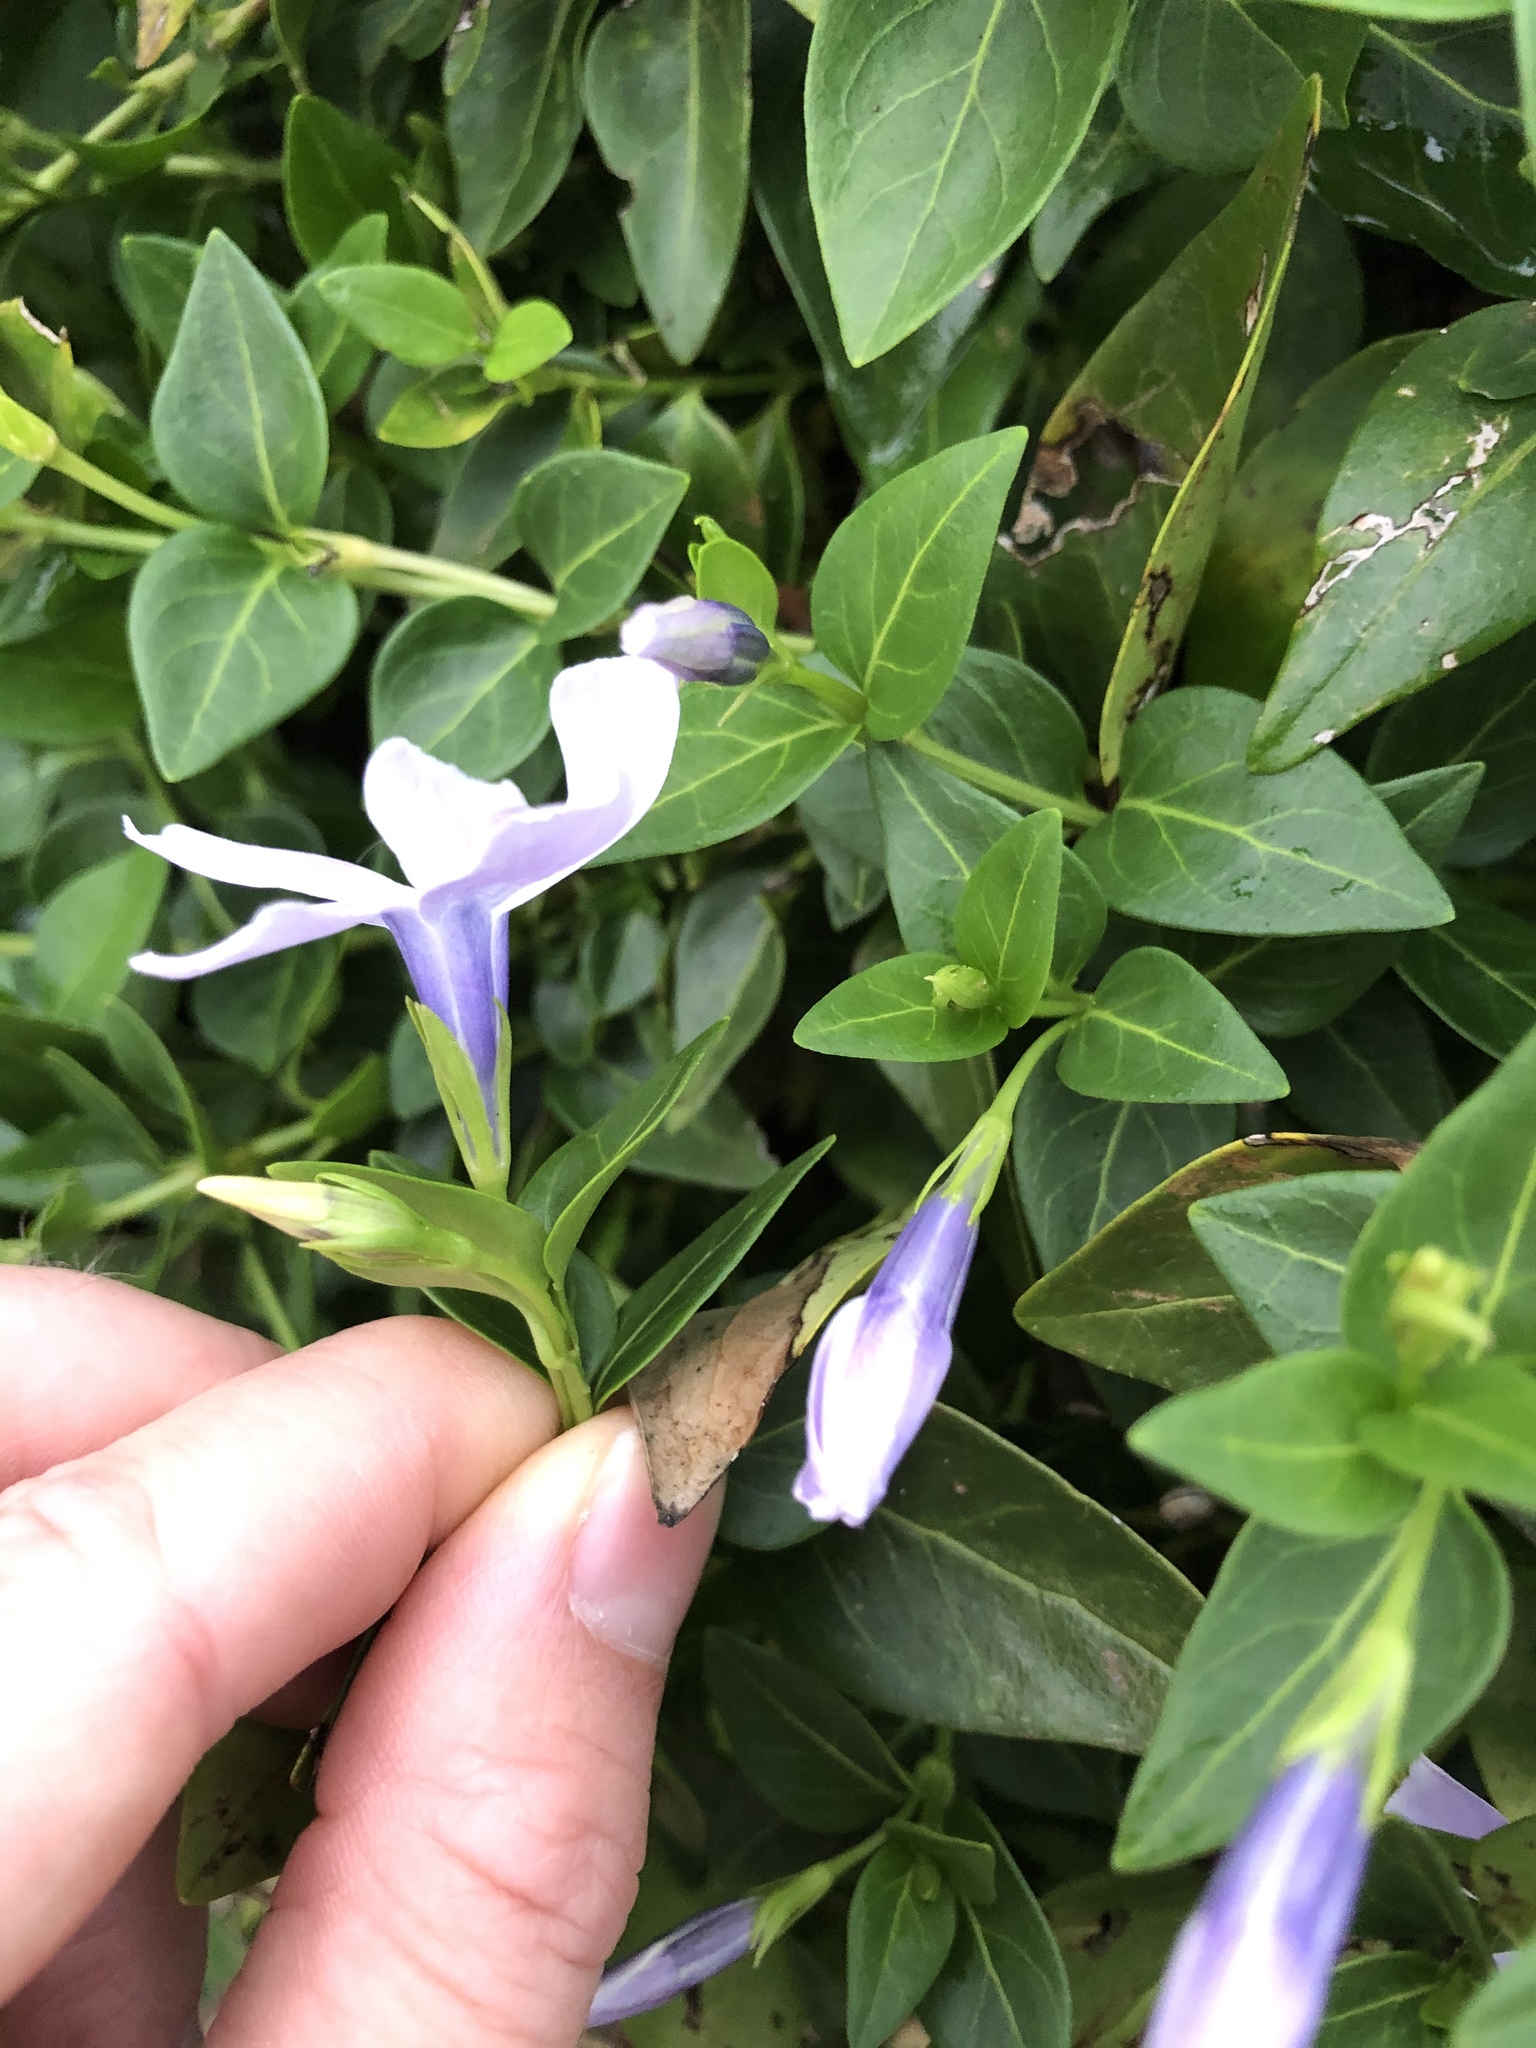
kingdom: Plantae
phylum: Tracheophyta
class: Magnoliopsida
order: Gentianales
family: Apocynaceae
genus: Vinca
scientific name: Vinca difformis
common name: Intermediate periwinkle
